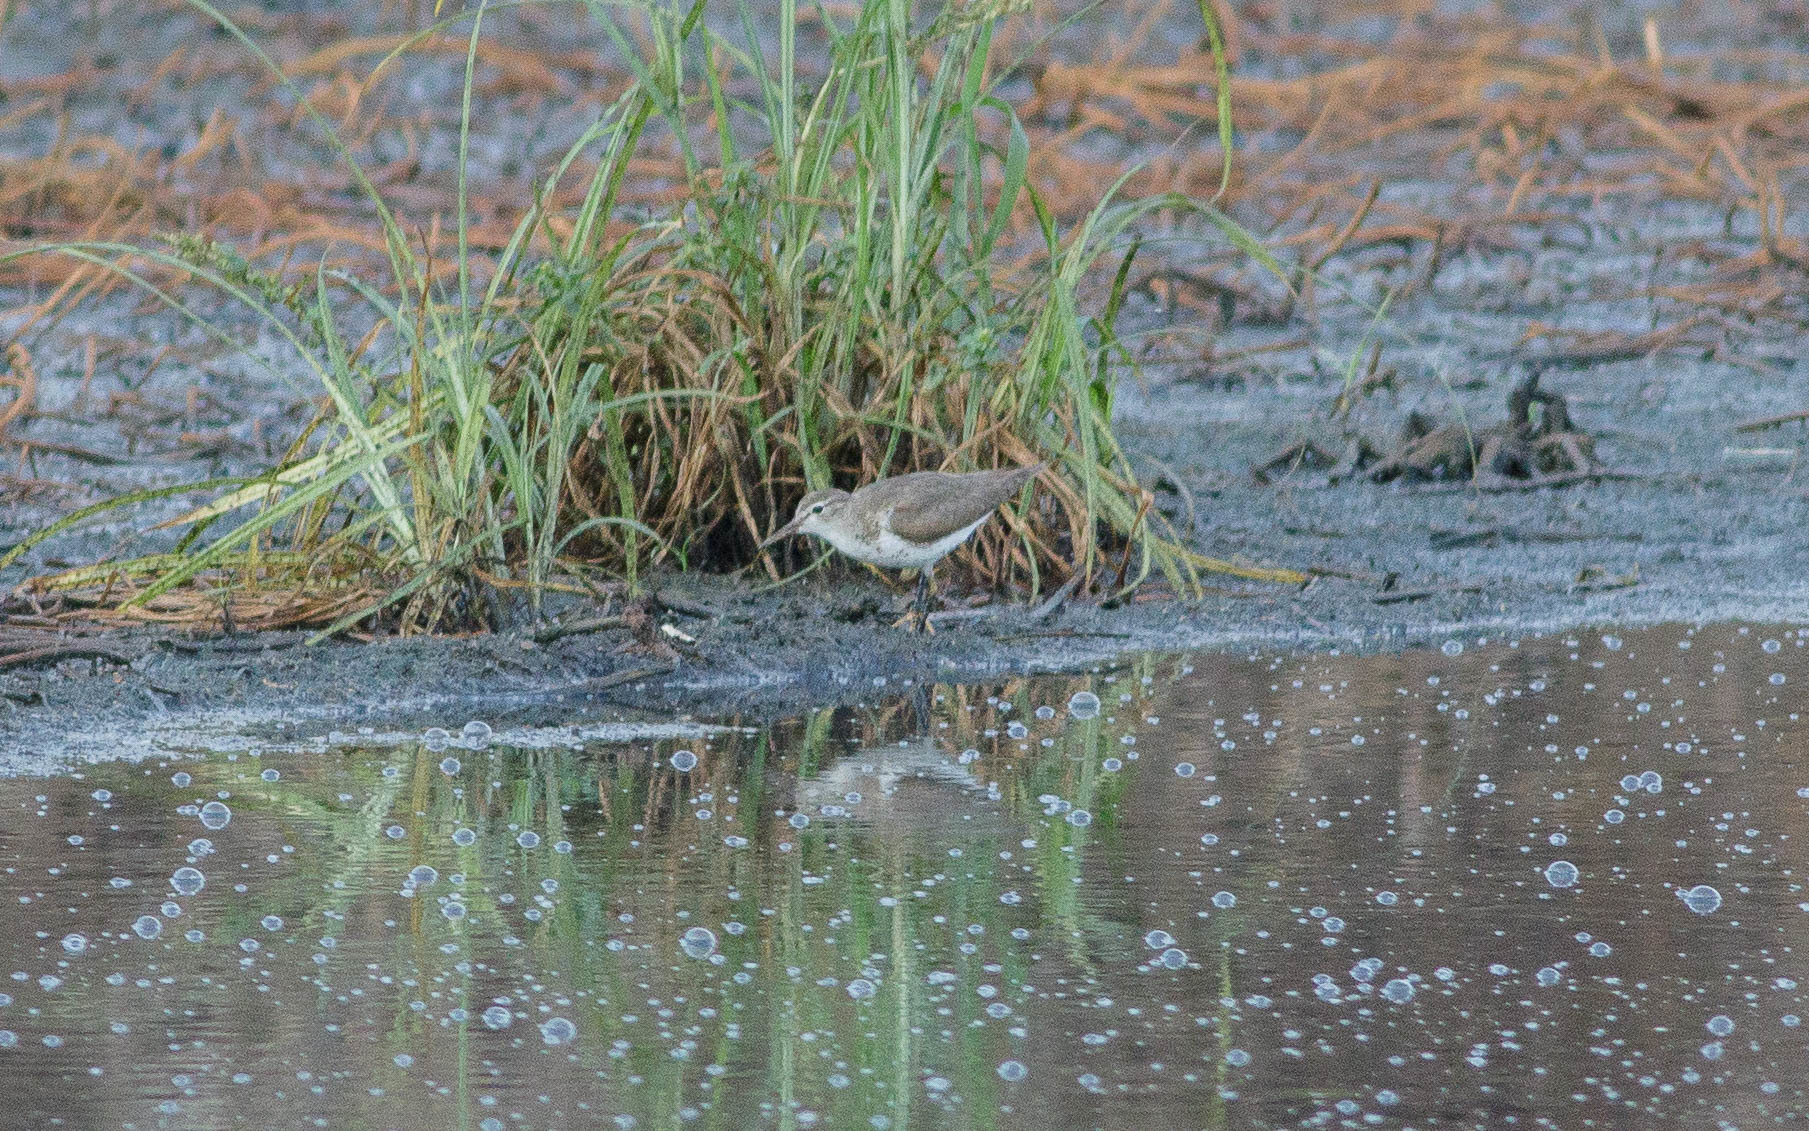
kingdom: Animalia
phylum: Chordata
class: Aves
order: Charadriiformes
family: Scolopacidae
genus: Actitis
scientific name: Actitis macularius
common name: Spotted sandpiper
